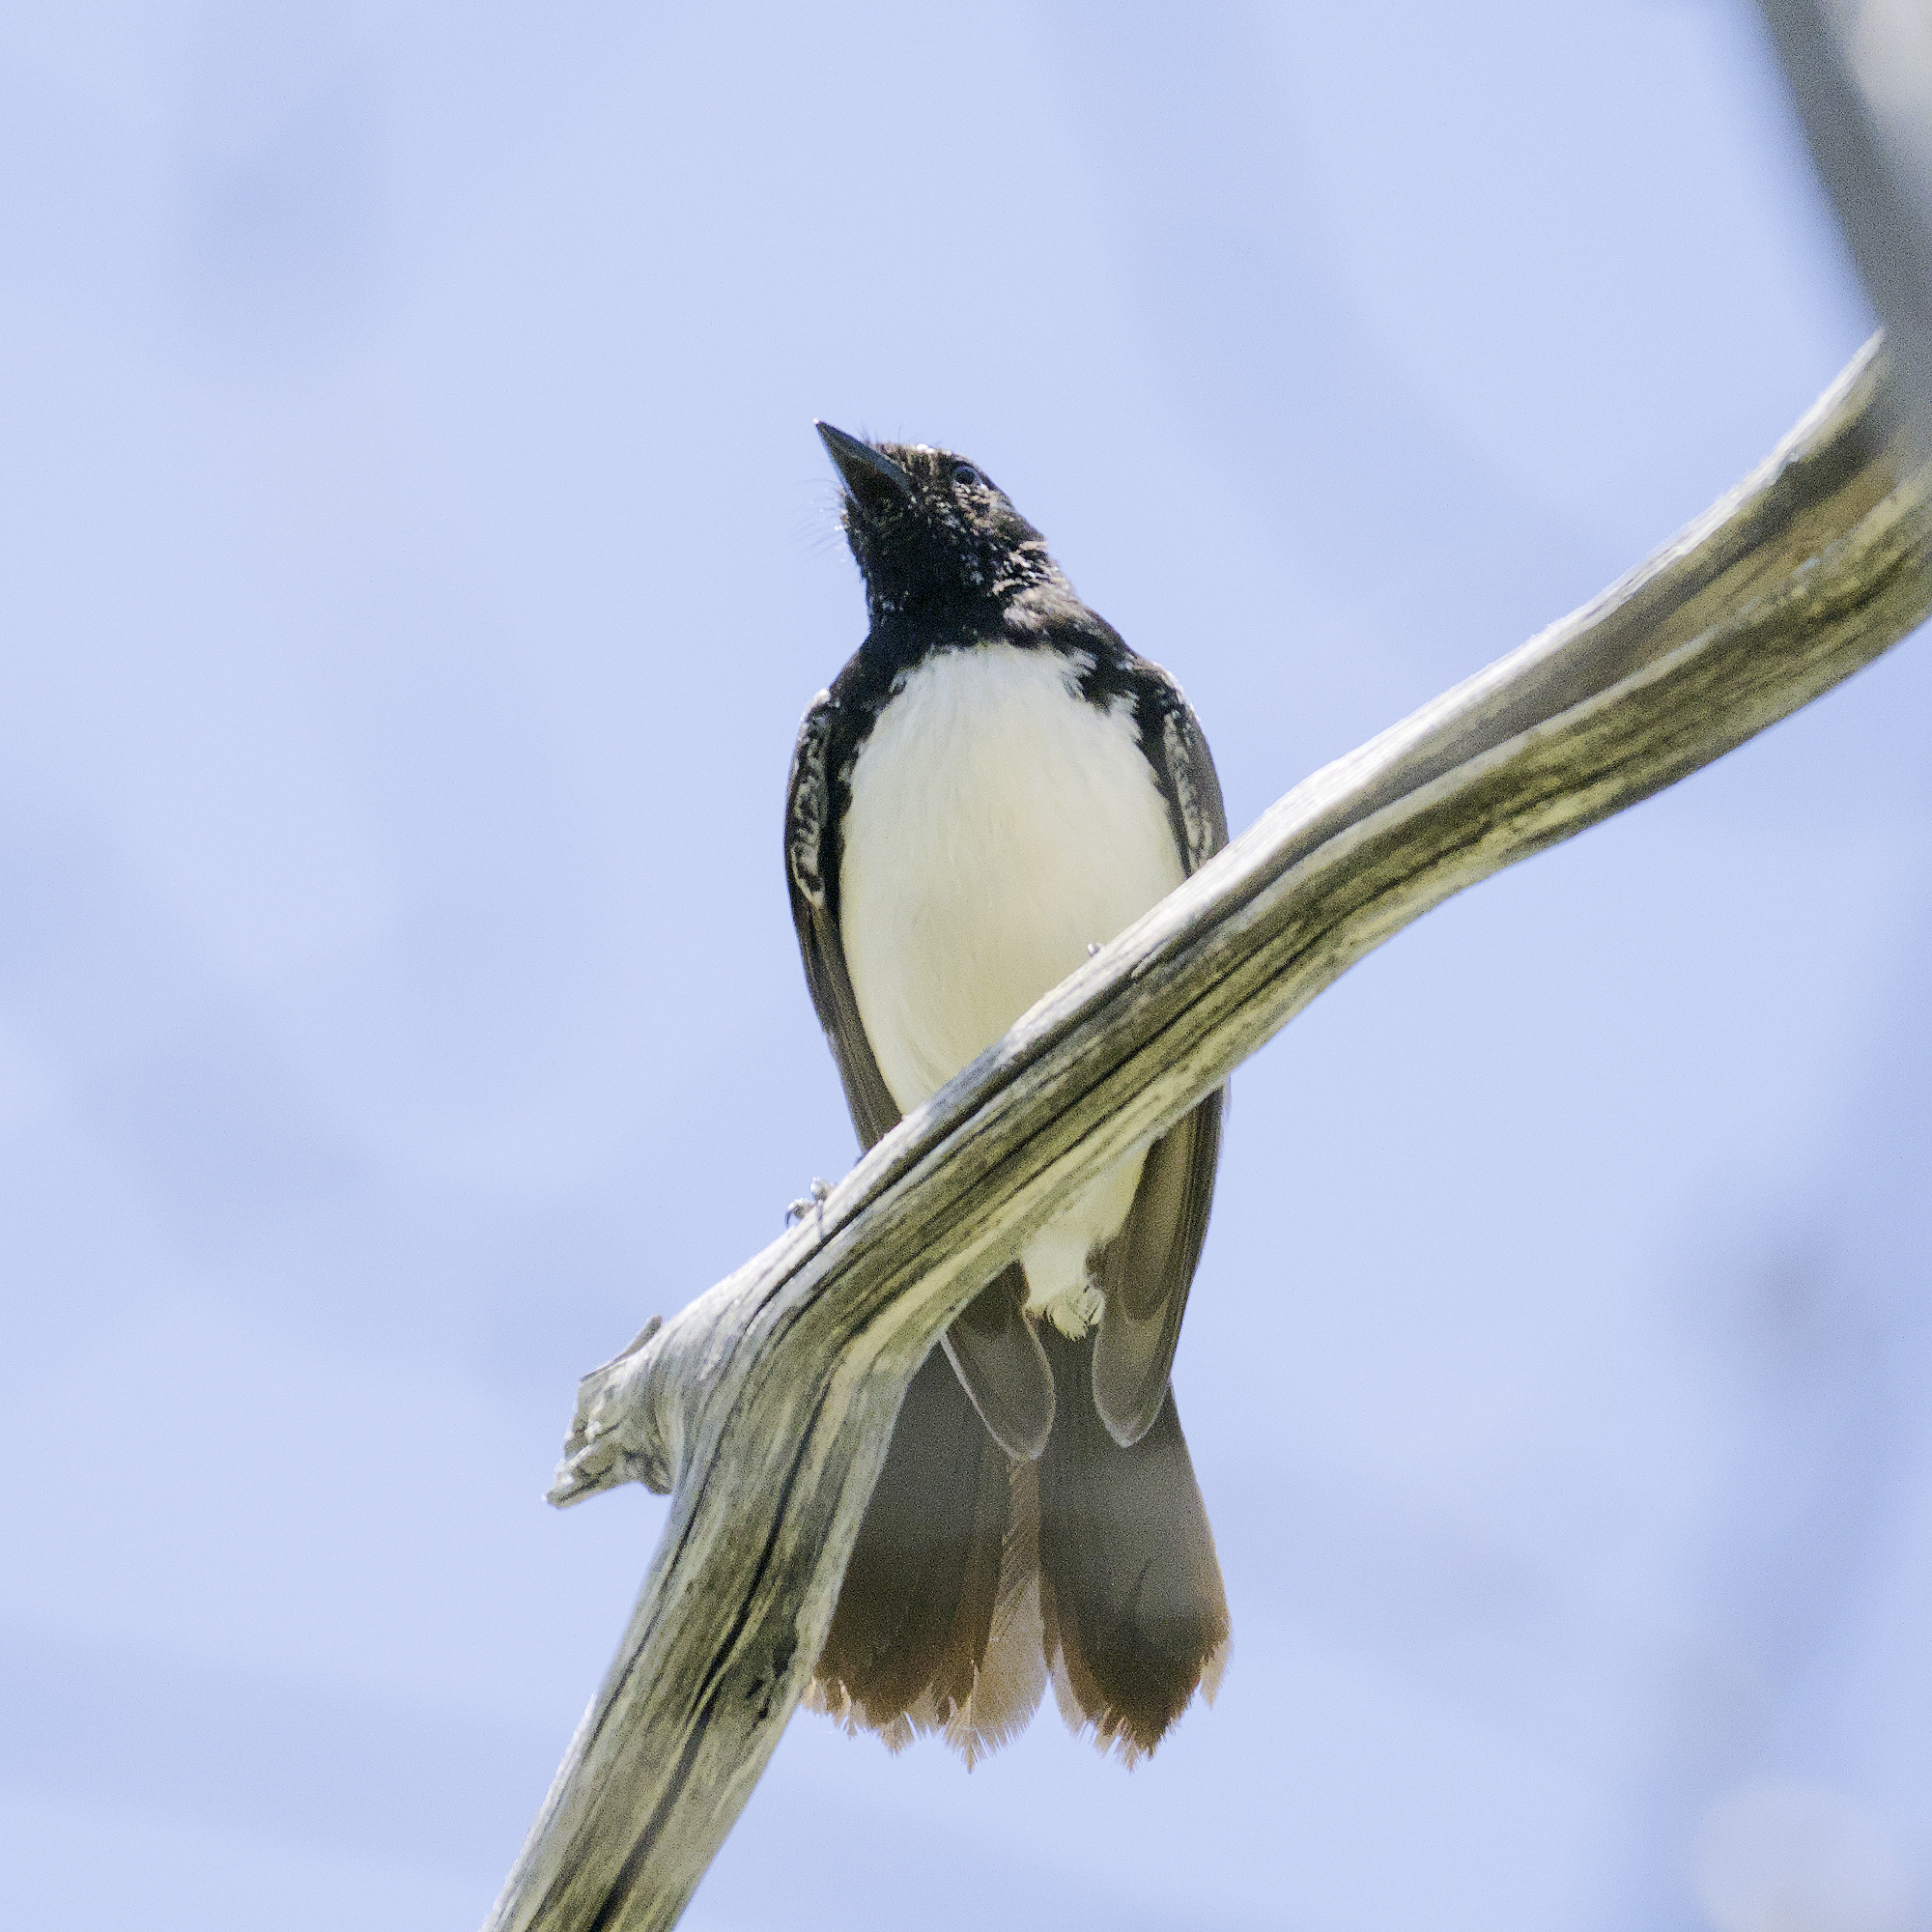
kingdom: Animalia
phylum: Chordata
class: Aves
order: Passeriformes
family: Rhipiduridae
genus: Rhipidura
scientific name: Rhipidura leucophrys
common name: Willie wagtail
